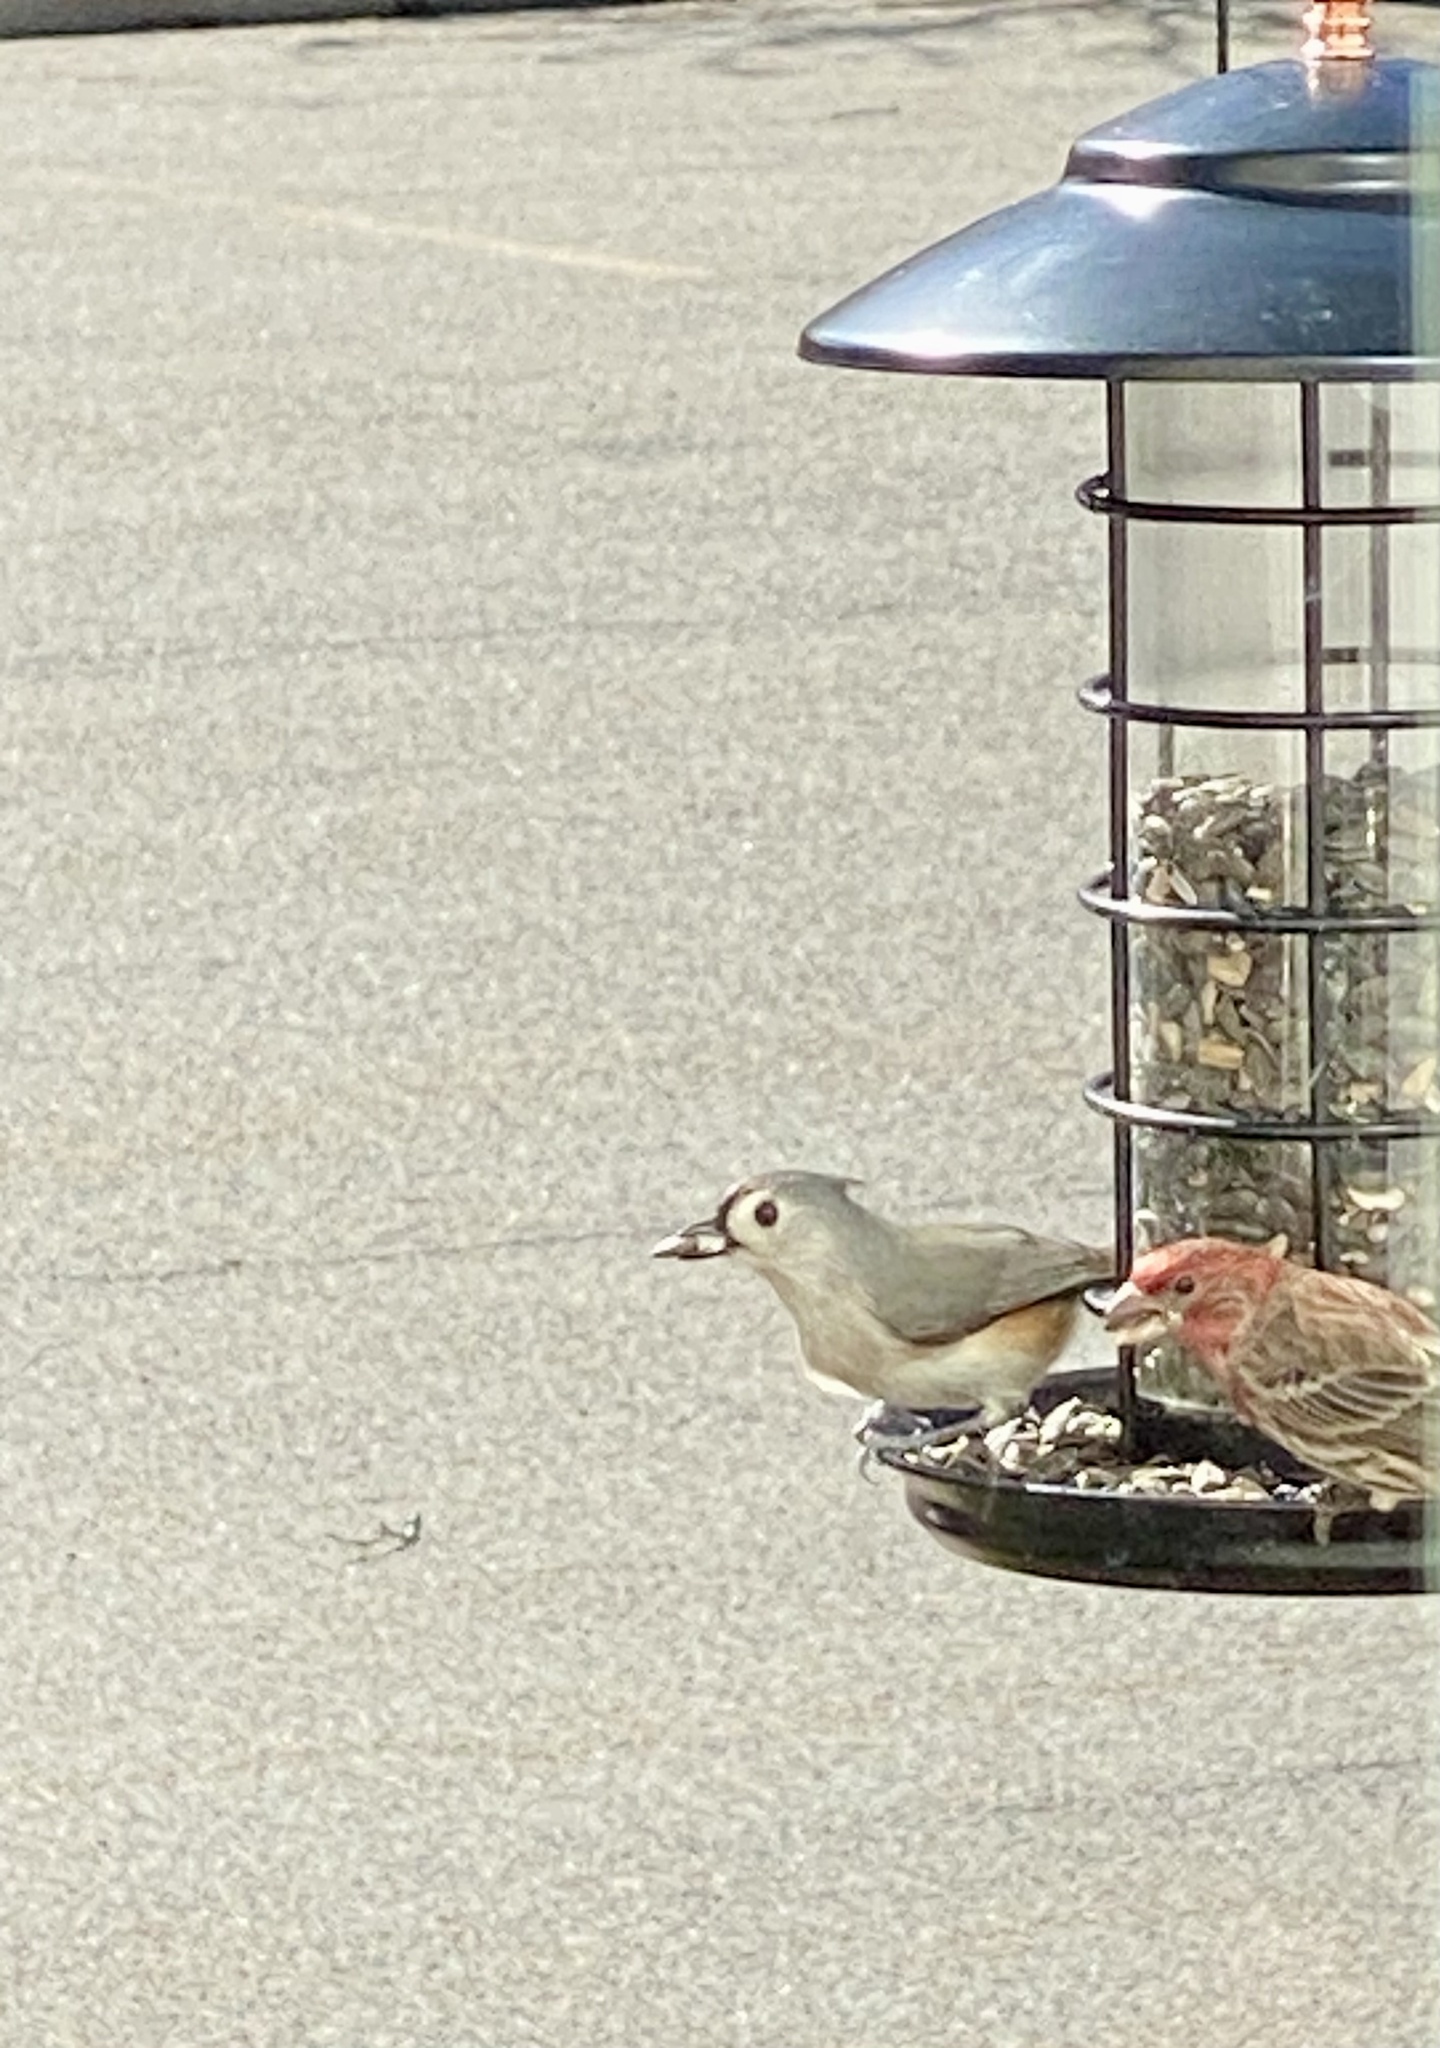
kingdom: Animalia
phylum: Chordata
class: Aves
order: Passeriformes
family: Fringillidae
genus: Haemorhous
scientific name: Haemorhous mexicanus
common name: House finch
